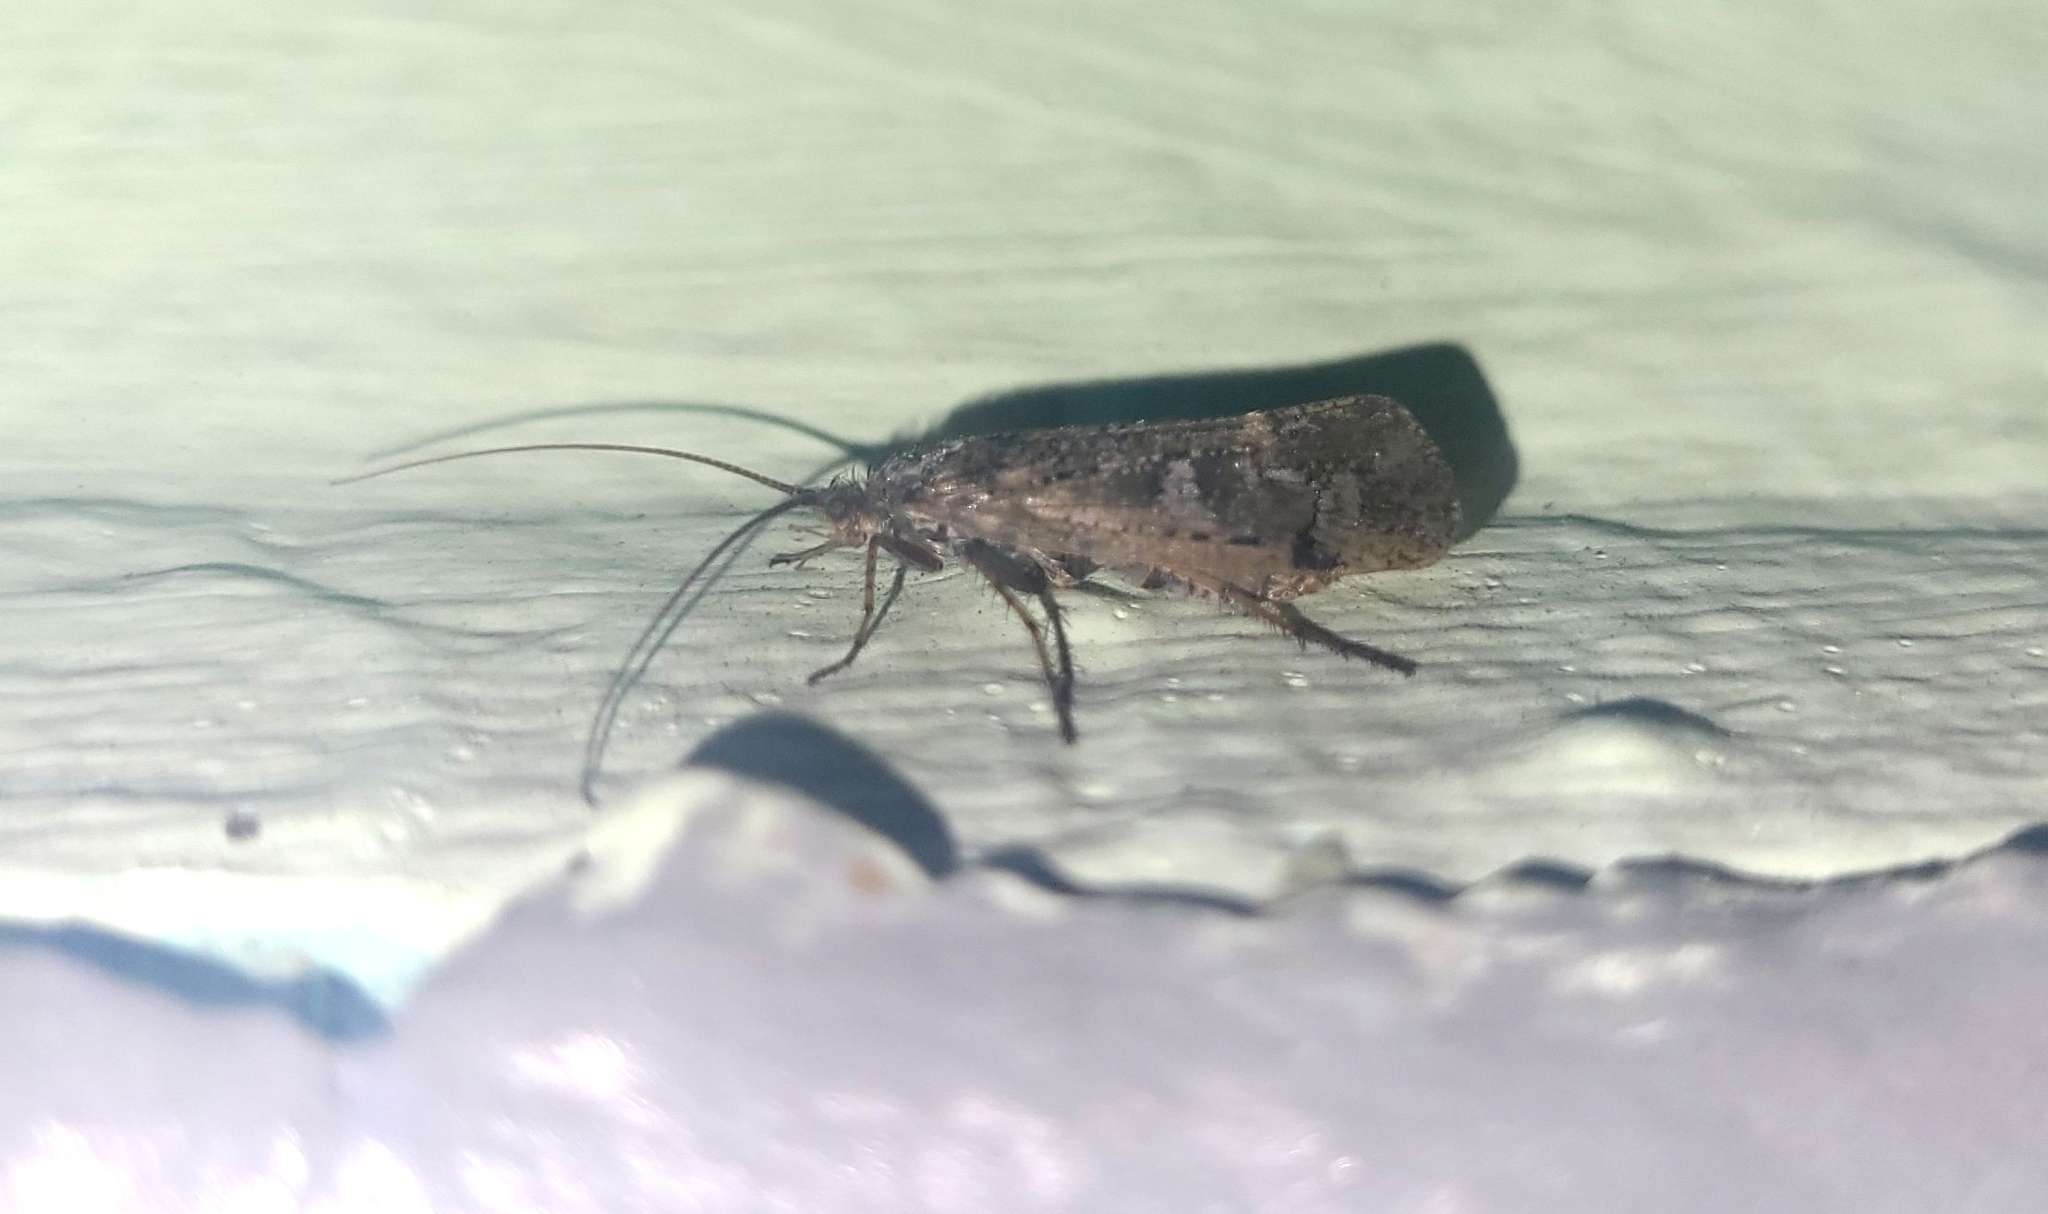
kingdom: Animalia
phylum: Arthropoda
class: Insecta
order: Trichoptera
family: Limnephilidae
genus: Glyphotaelius
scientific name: Glyphotaelius pellucidus
